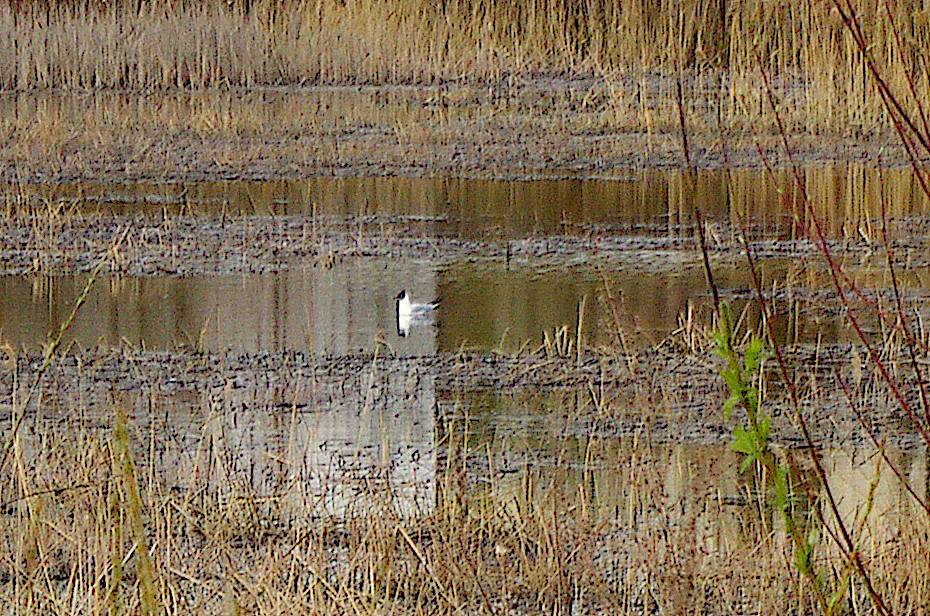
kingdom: Animalia
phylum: Chordata
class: Aves
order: Charadriiformes
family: Laridae
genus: Chroicocephalus
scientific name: Chroicocephalus ridibundus
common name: Black-headed gull
